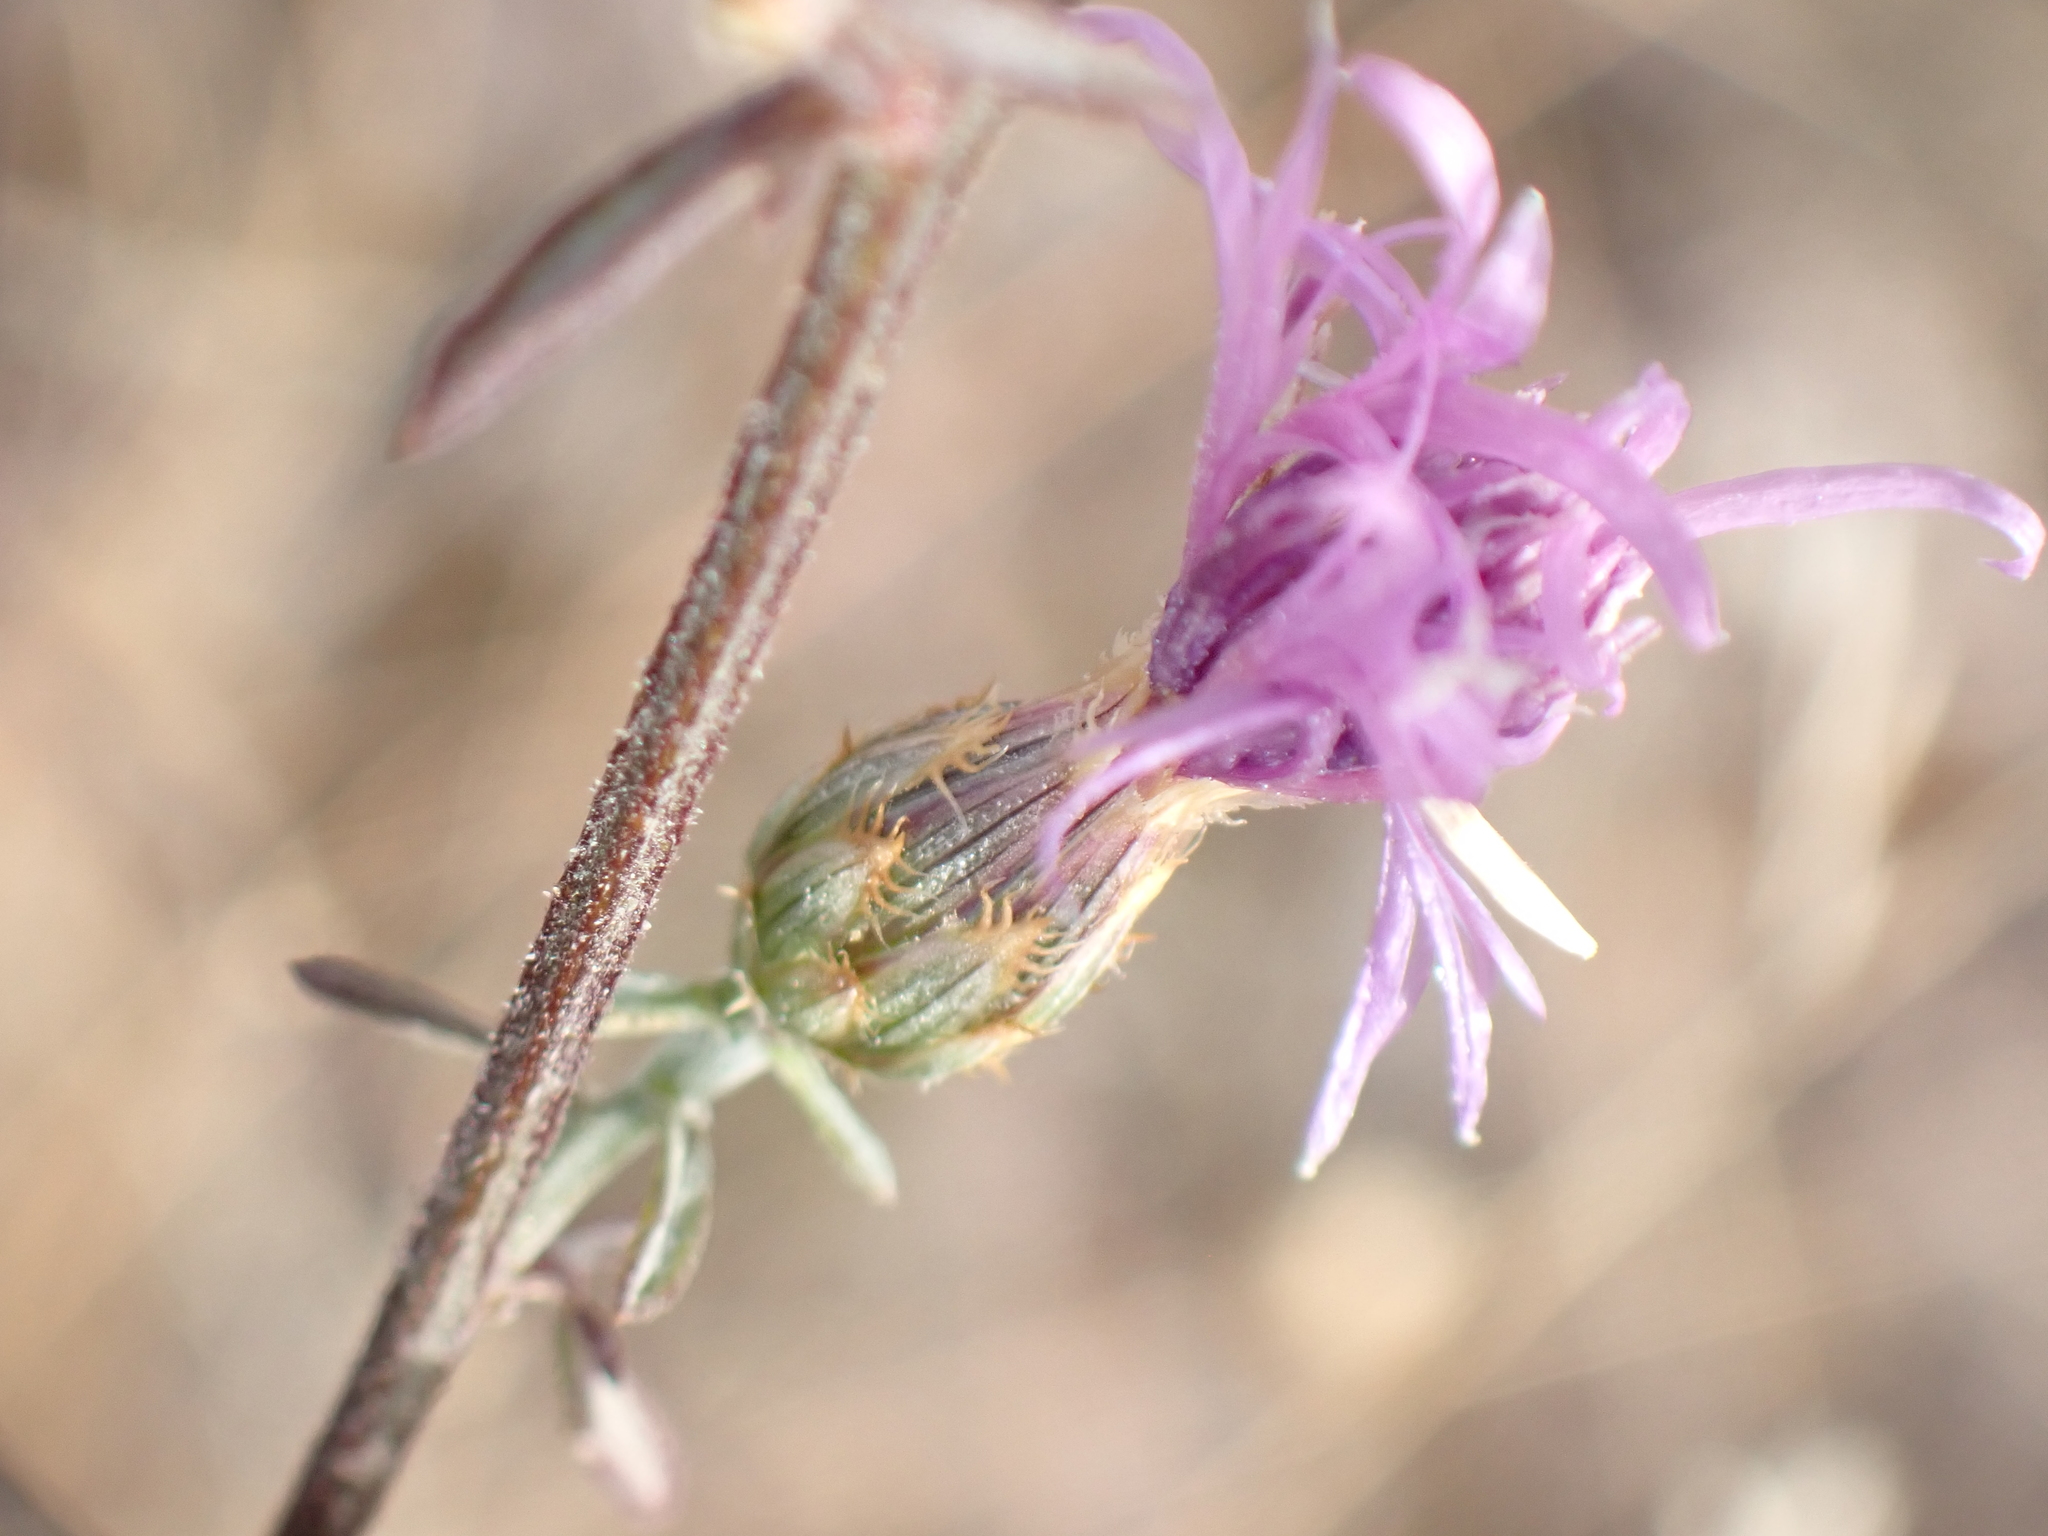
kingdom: Plantae
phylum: Tracheophyta
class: Magnoliopsida
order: Asterales
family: Asteraceae
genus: Centaurea
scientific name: Centaurea paniculata
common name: Jersey knapweed
